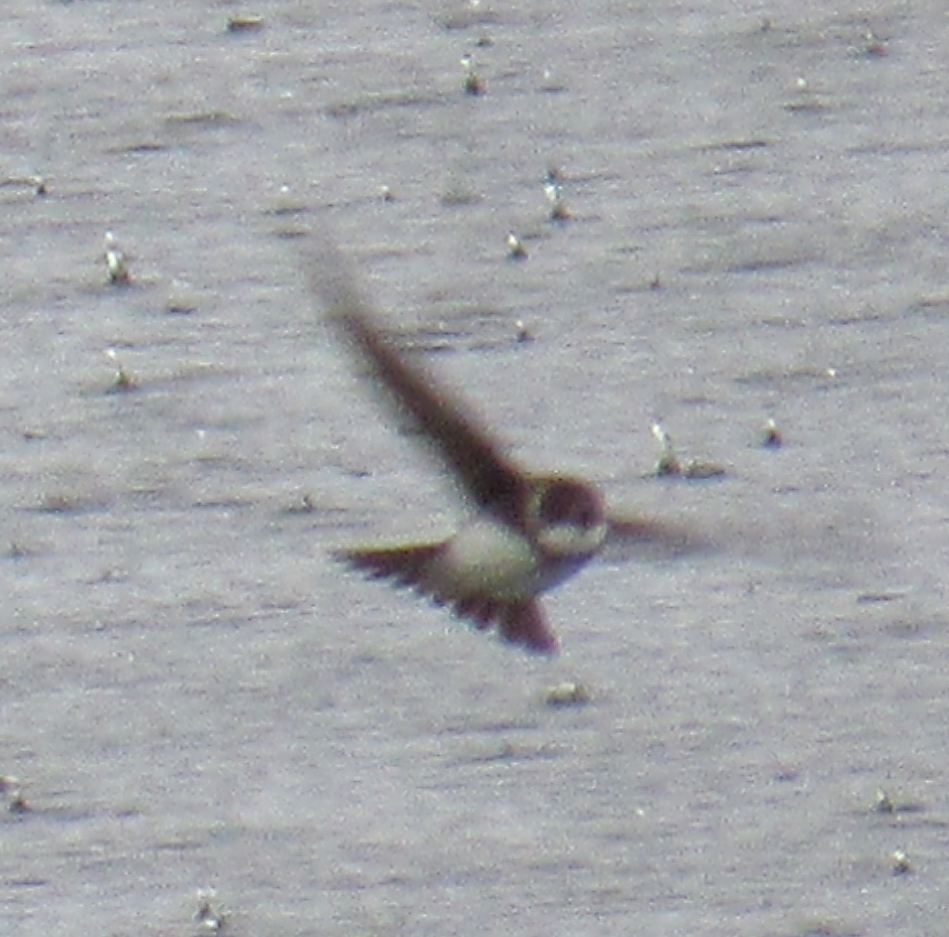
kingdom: Animalia
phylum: Chordata
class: Aves
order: Passeriformes
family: Hirundinidae
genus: Riparia
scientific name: Riparia riparia
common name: Sand martin
